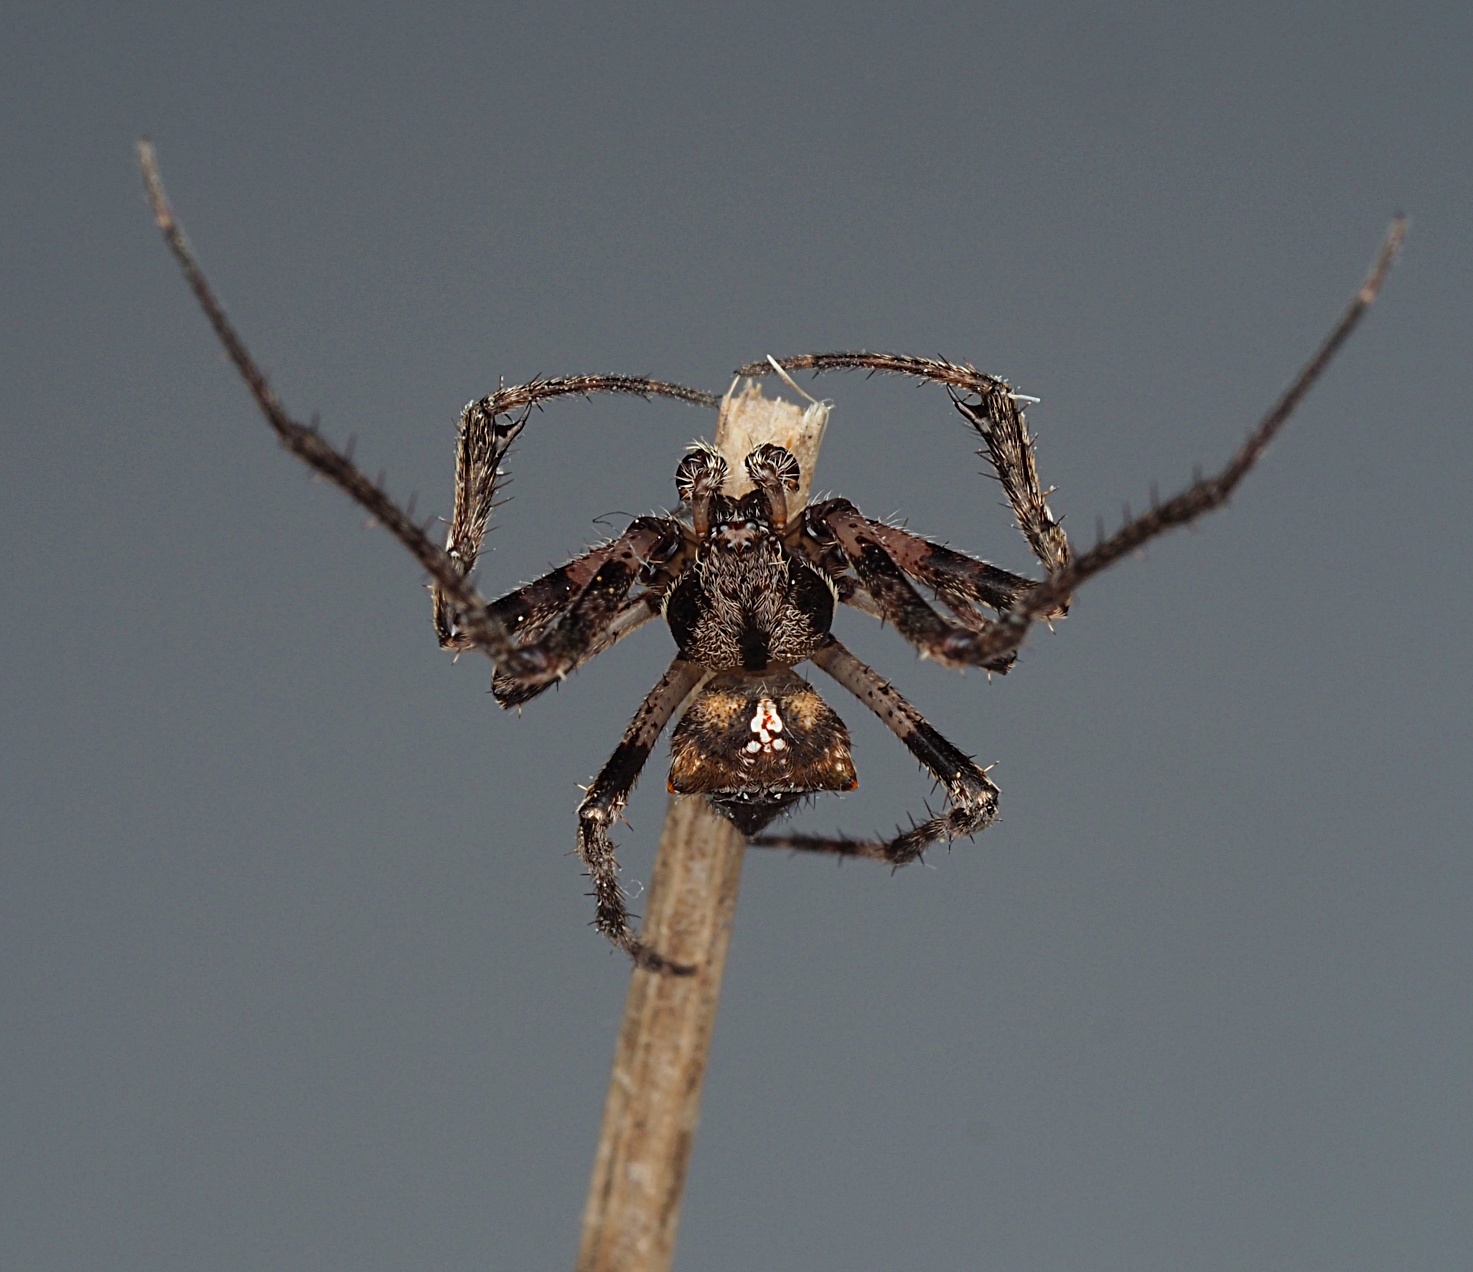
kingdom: Animalia
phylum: Arthropoda
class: Arachnida
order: Araneae
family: Araneidae
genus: Novakiella
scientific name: Novakiella trituberculosa
